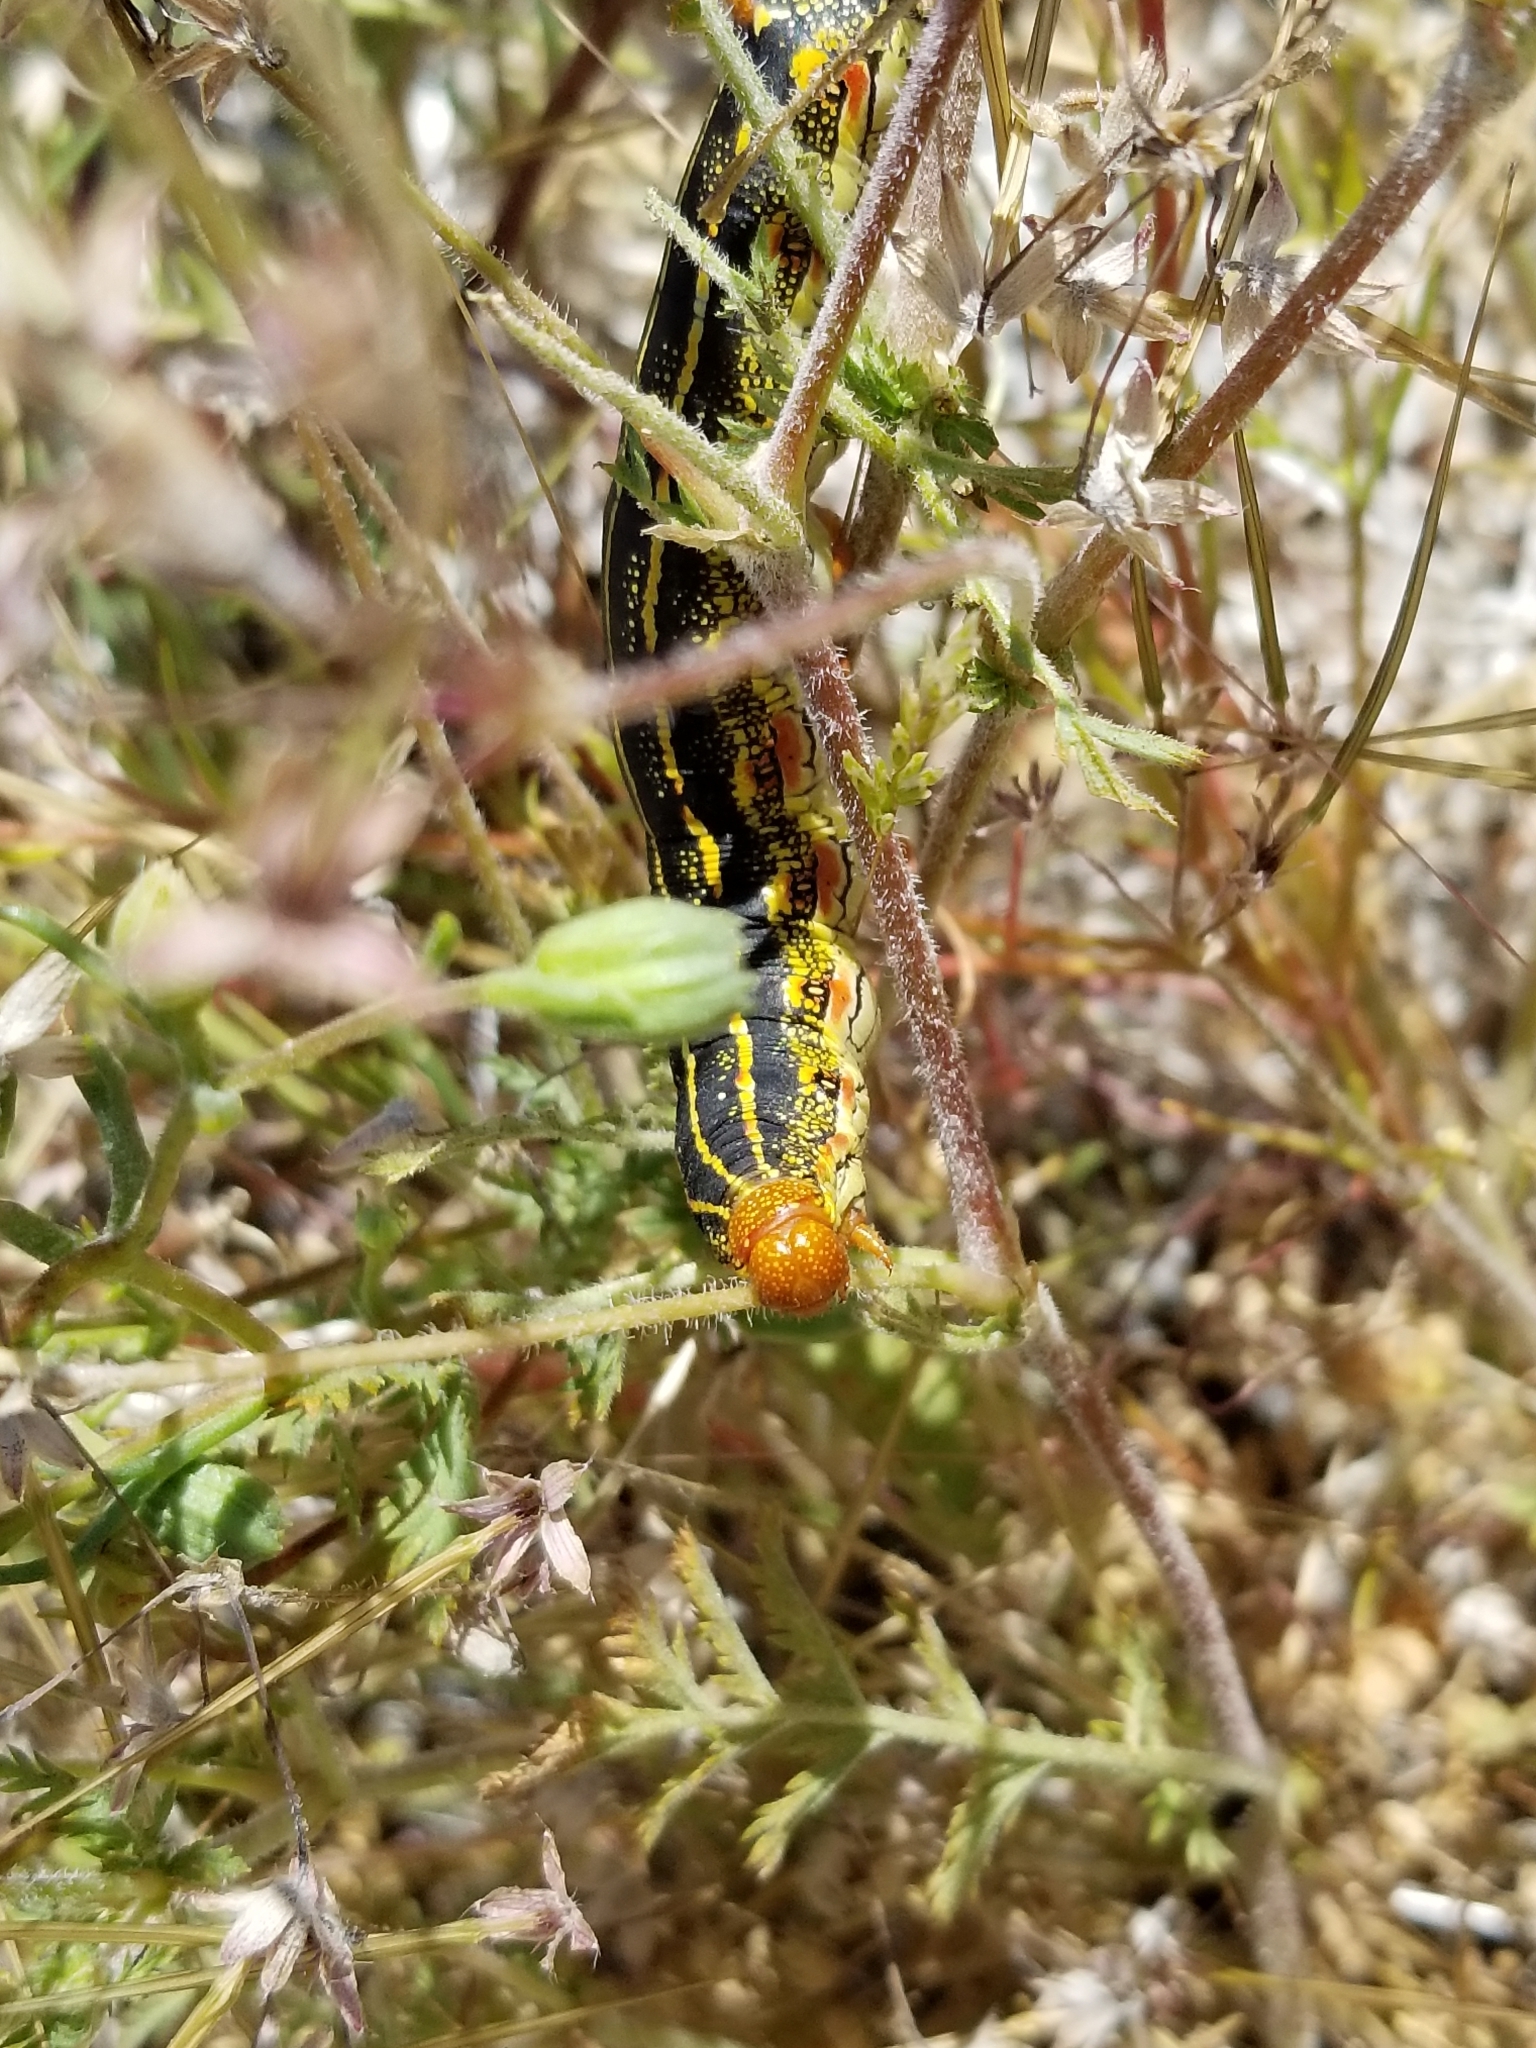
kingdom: Animalia
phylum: Arthropoda
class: Insecta
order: Lepidoptera
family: Sphingidae
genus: Hyles
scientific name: Hyles lineata
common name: White-lined sphinx
